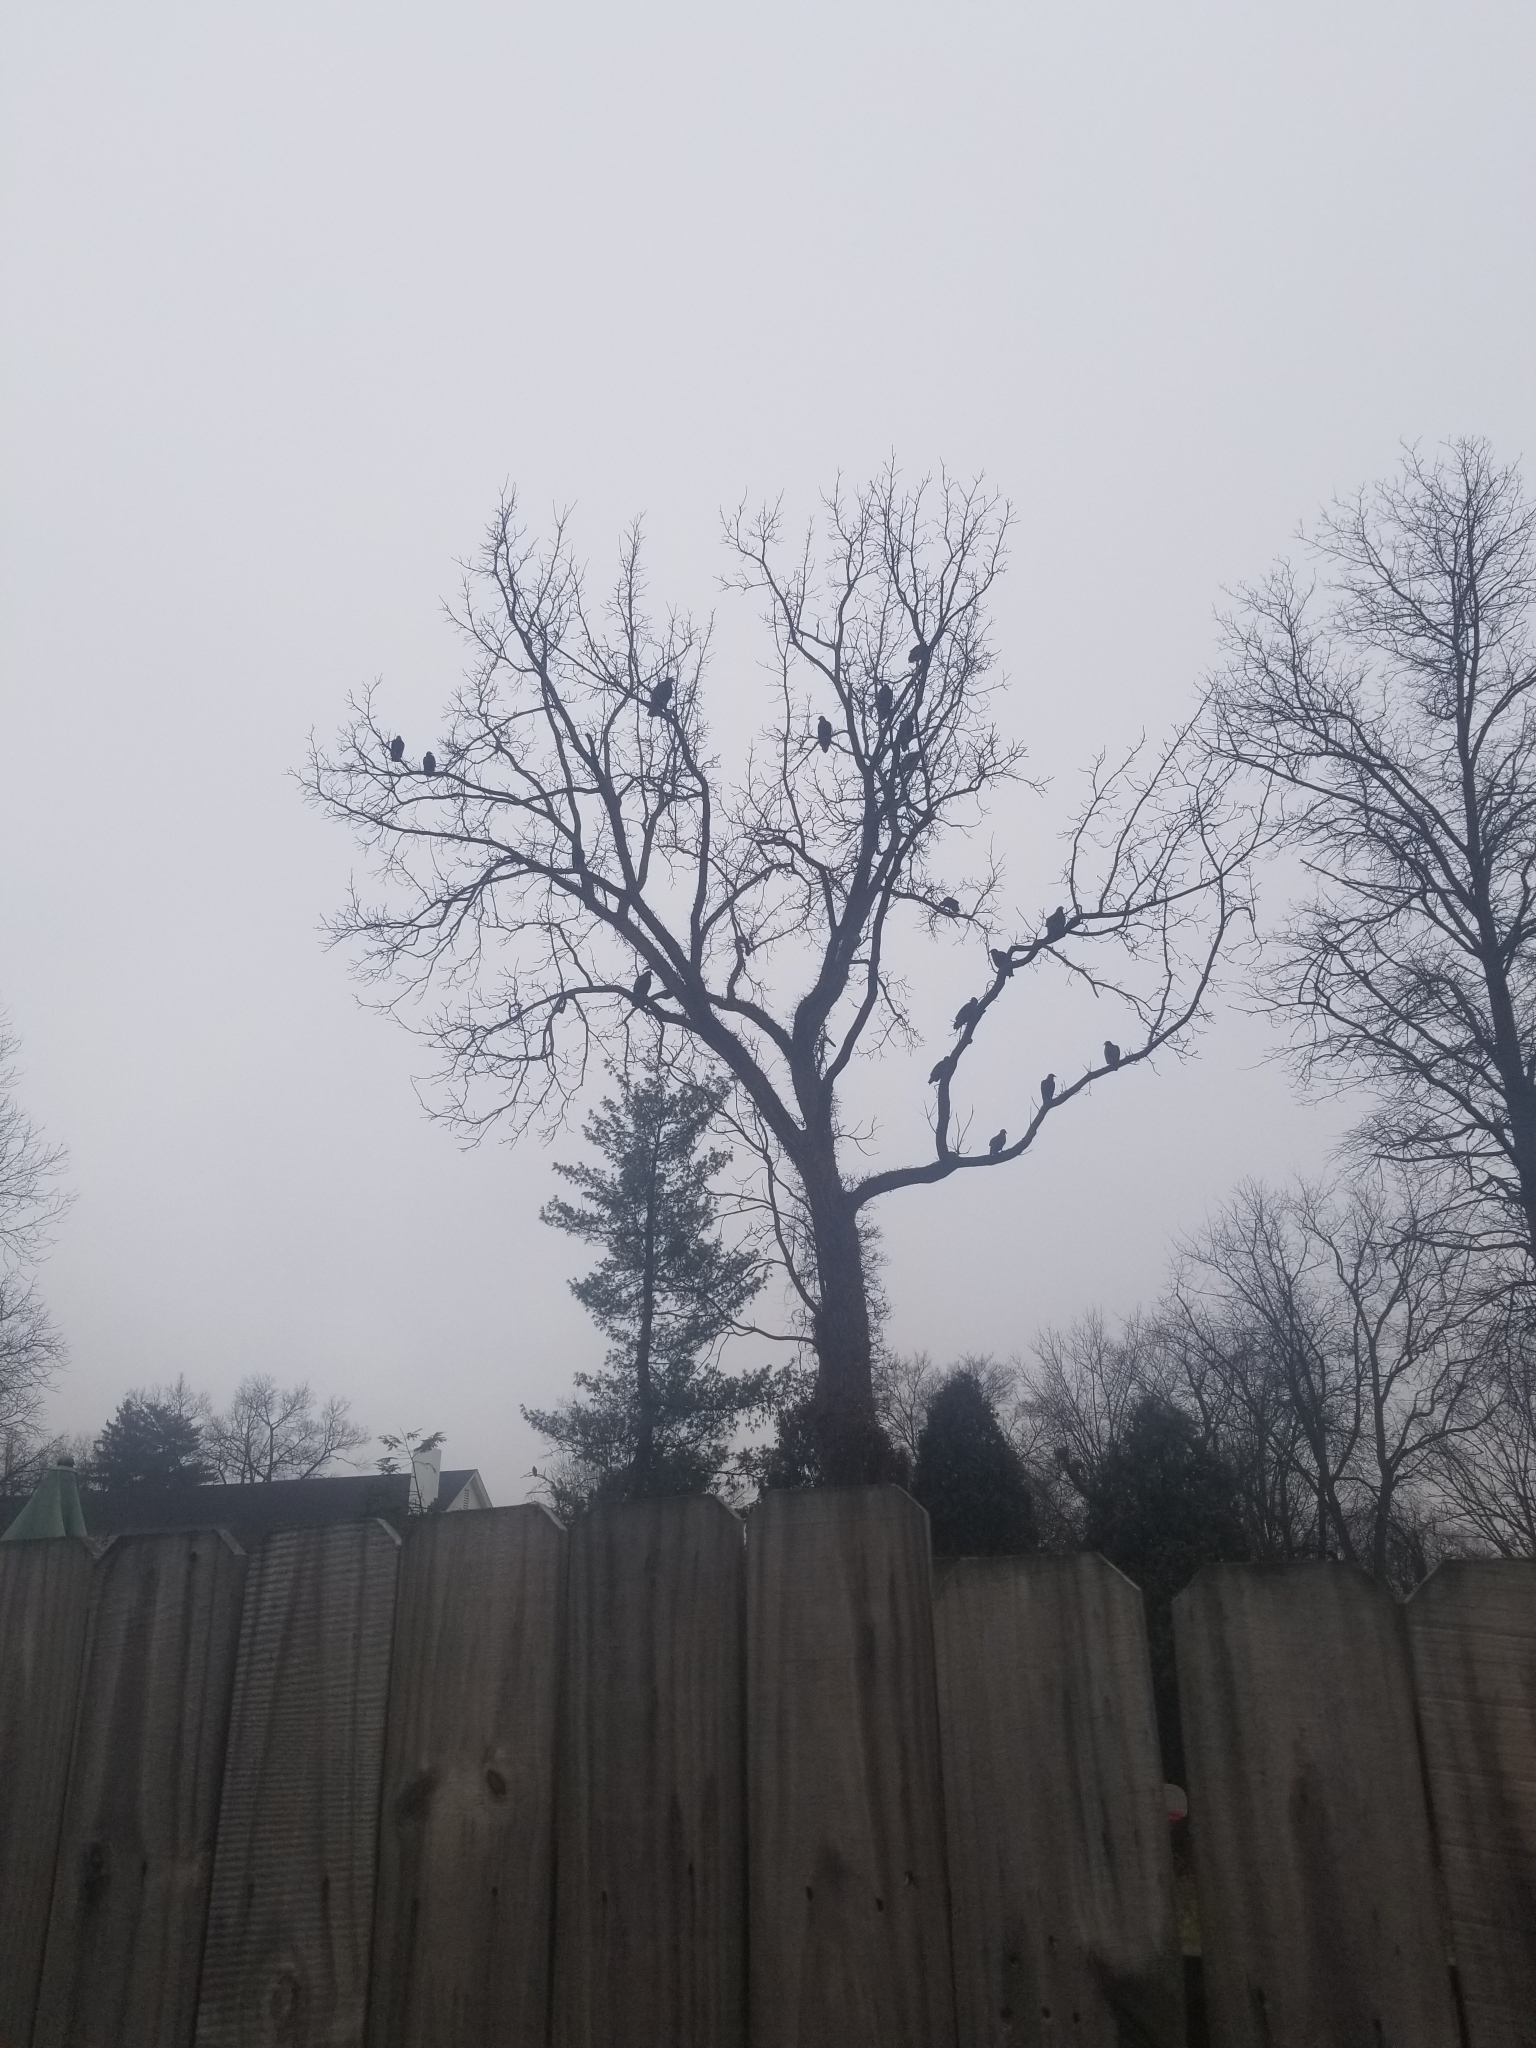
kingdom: Animalia
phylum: Chordata
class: Aves
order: Accipitriformes
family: Cathartidae
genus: Cathartes
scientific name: Cathartes aura
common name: Turkey vulture
